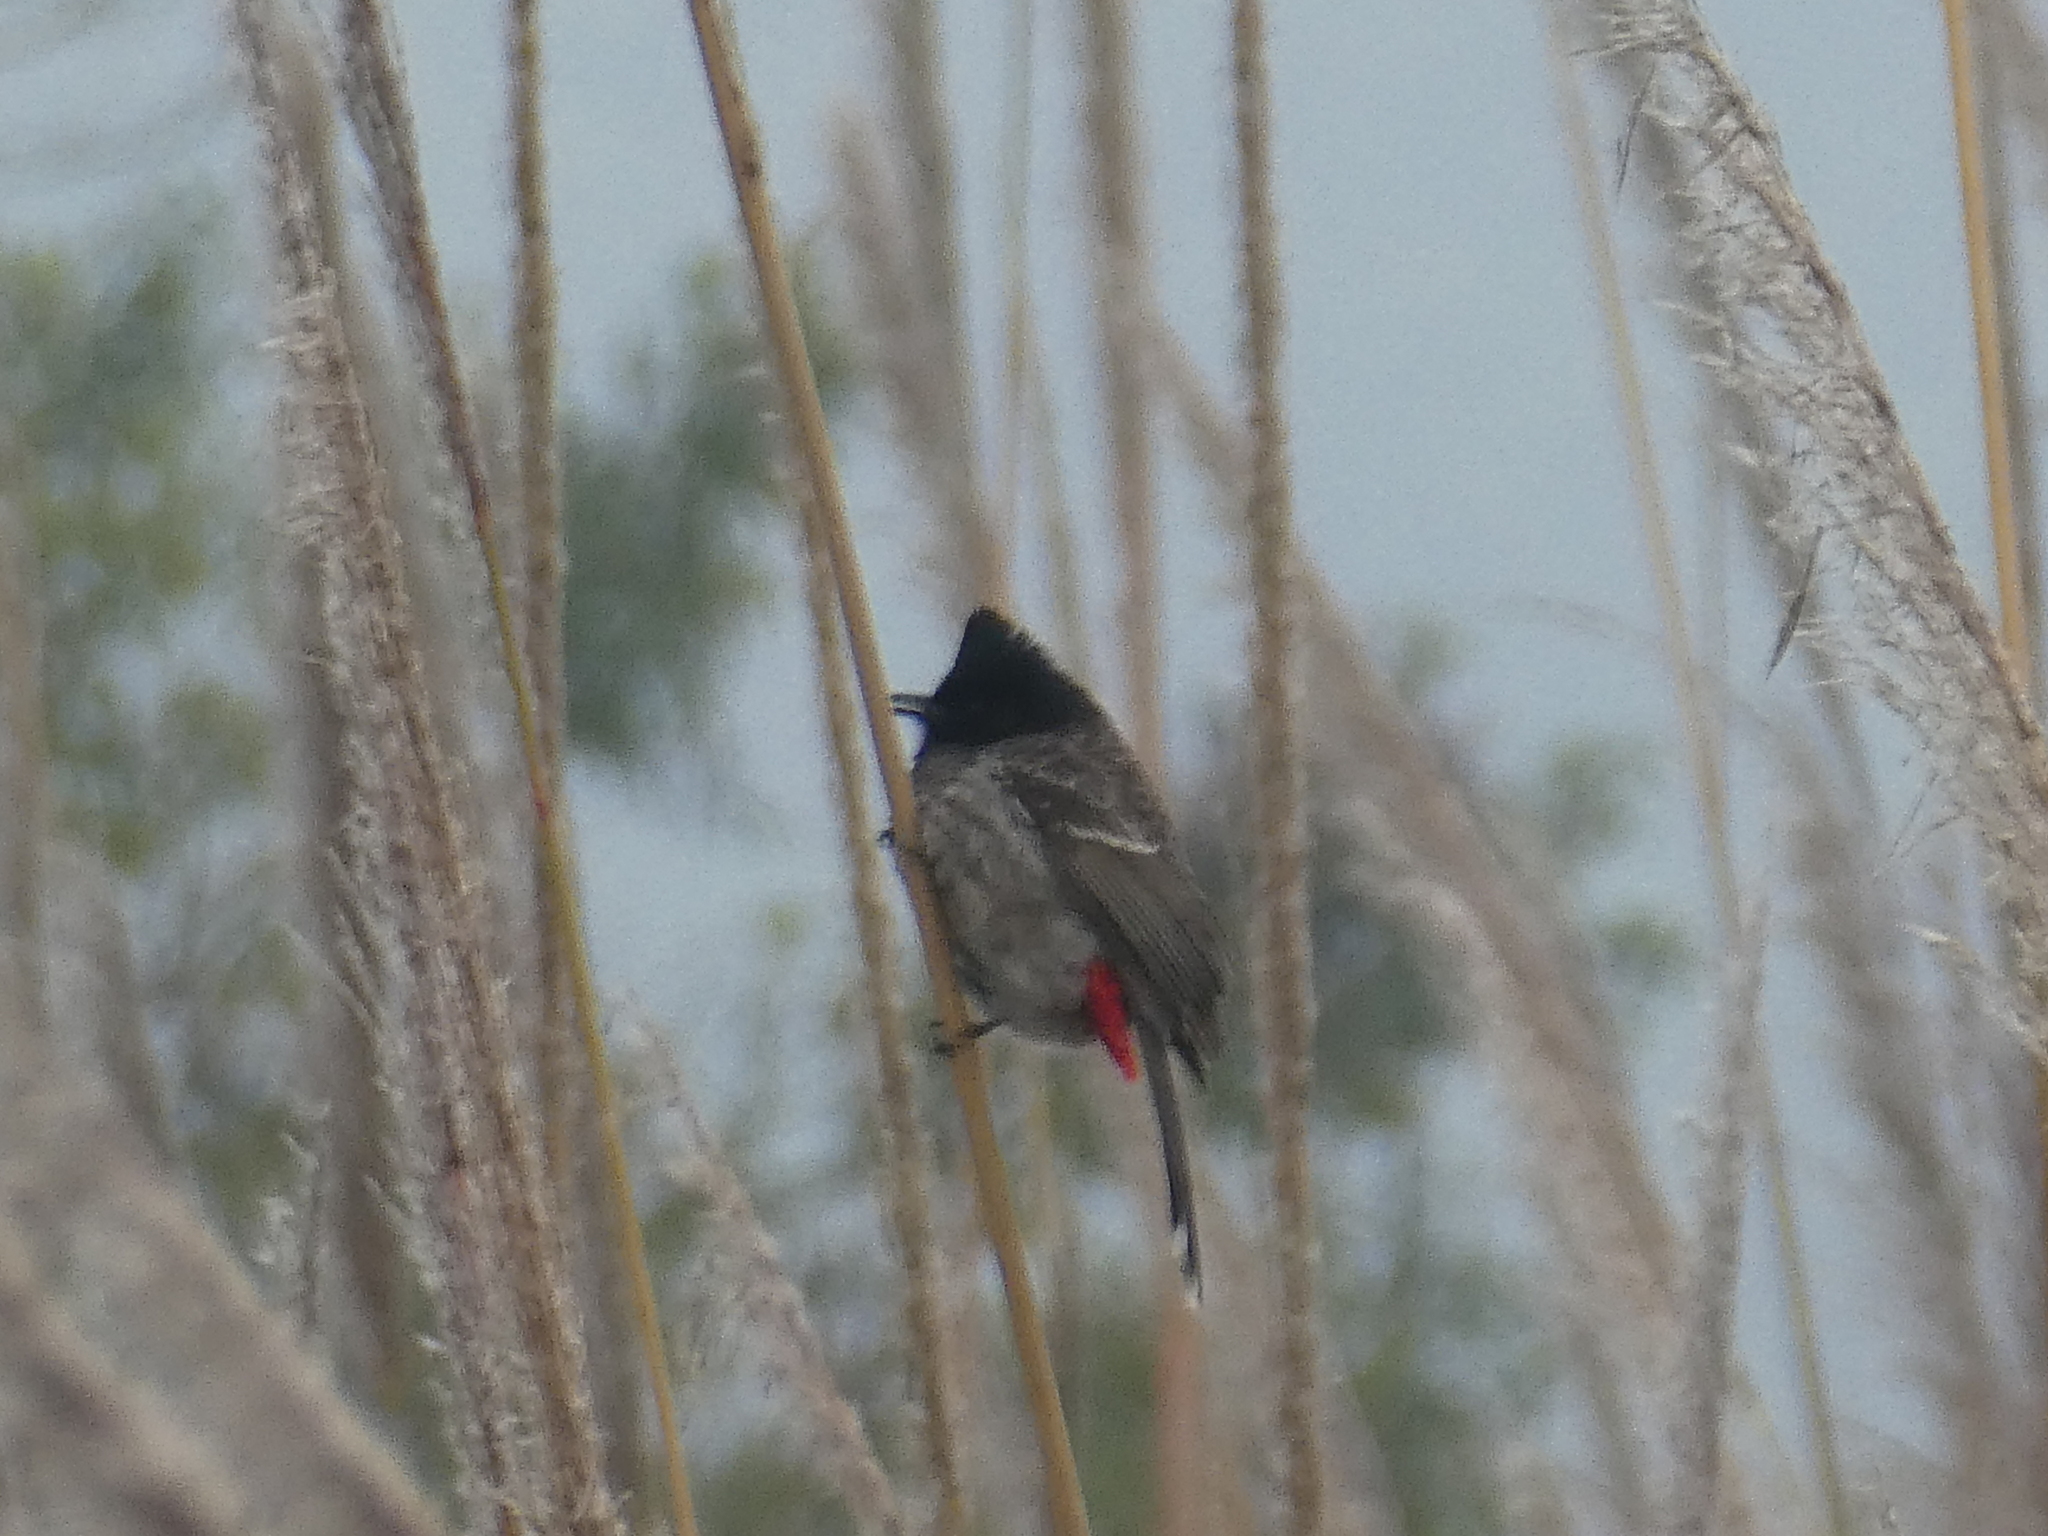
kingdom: Animalia
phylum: Chordata
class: Aves
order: Passeriformes
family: Pycnonotidae
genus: Pycnonotus
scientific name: Pycnonotus cafer
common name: Red-vented bulbul
